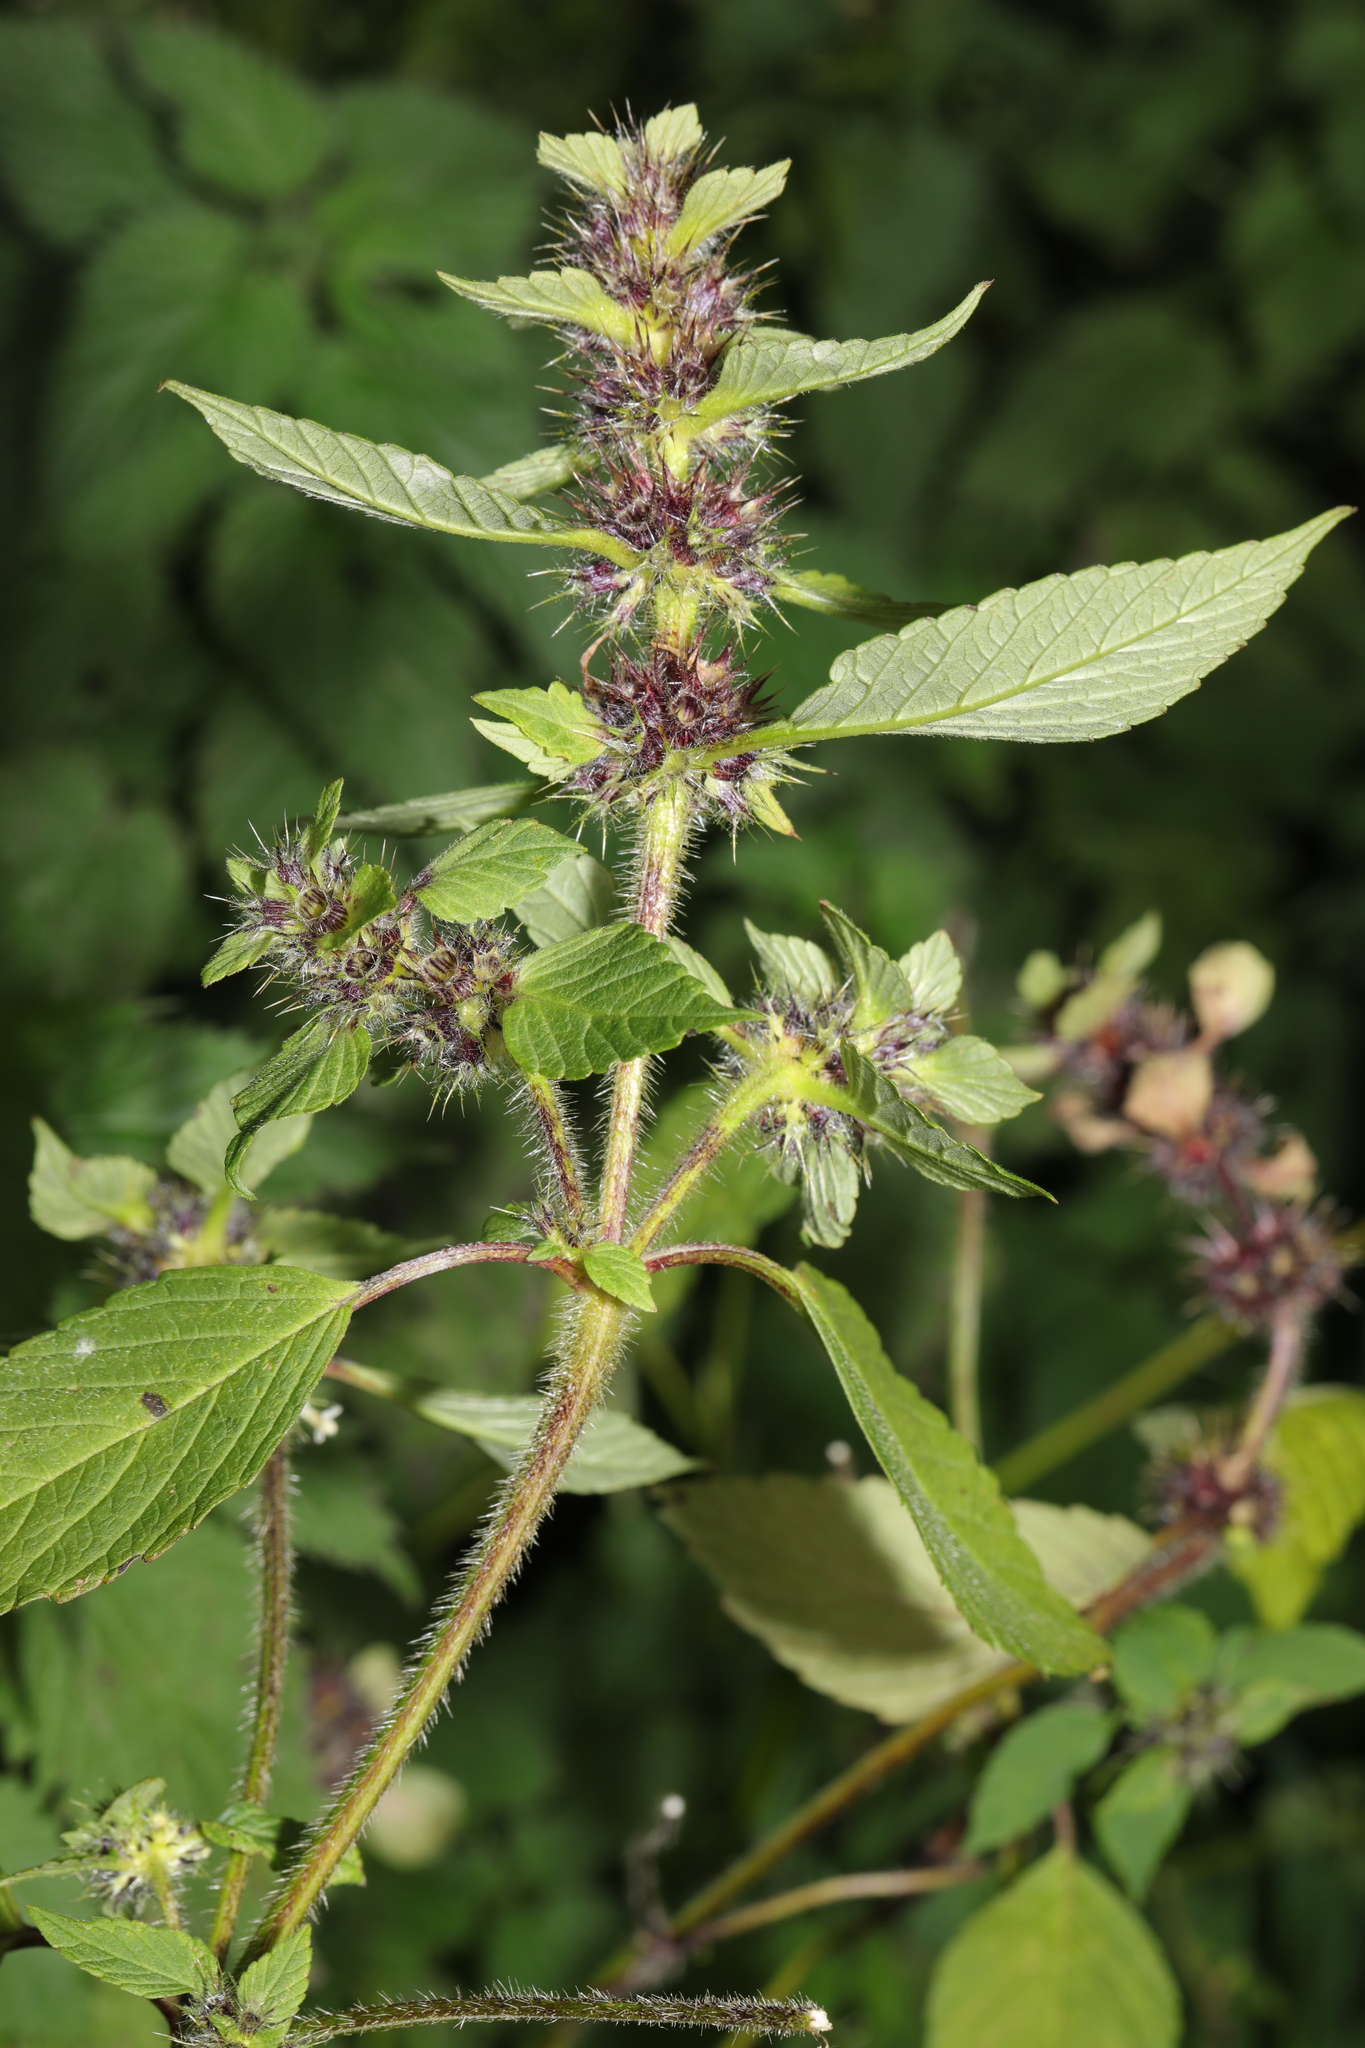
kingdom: Plantae
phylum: Tracheophyta
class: Magnoliopsida
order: Lamiales
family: Lamiaceae
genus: Galeopsis
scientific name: Galeopsis tetrahit
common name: Common hemp-nettle
